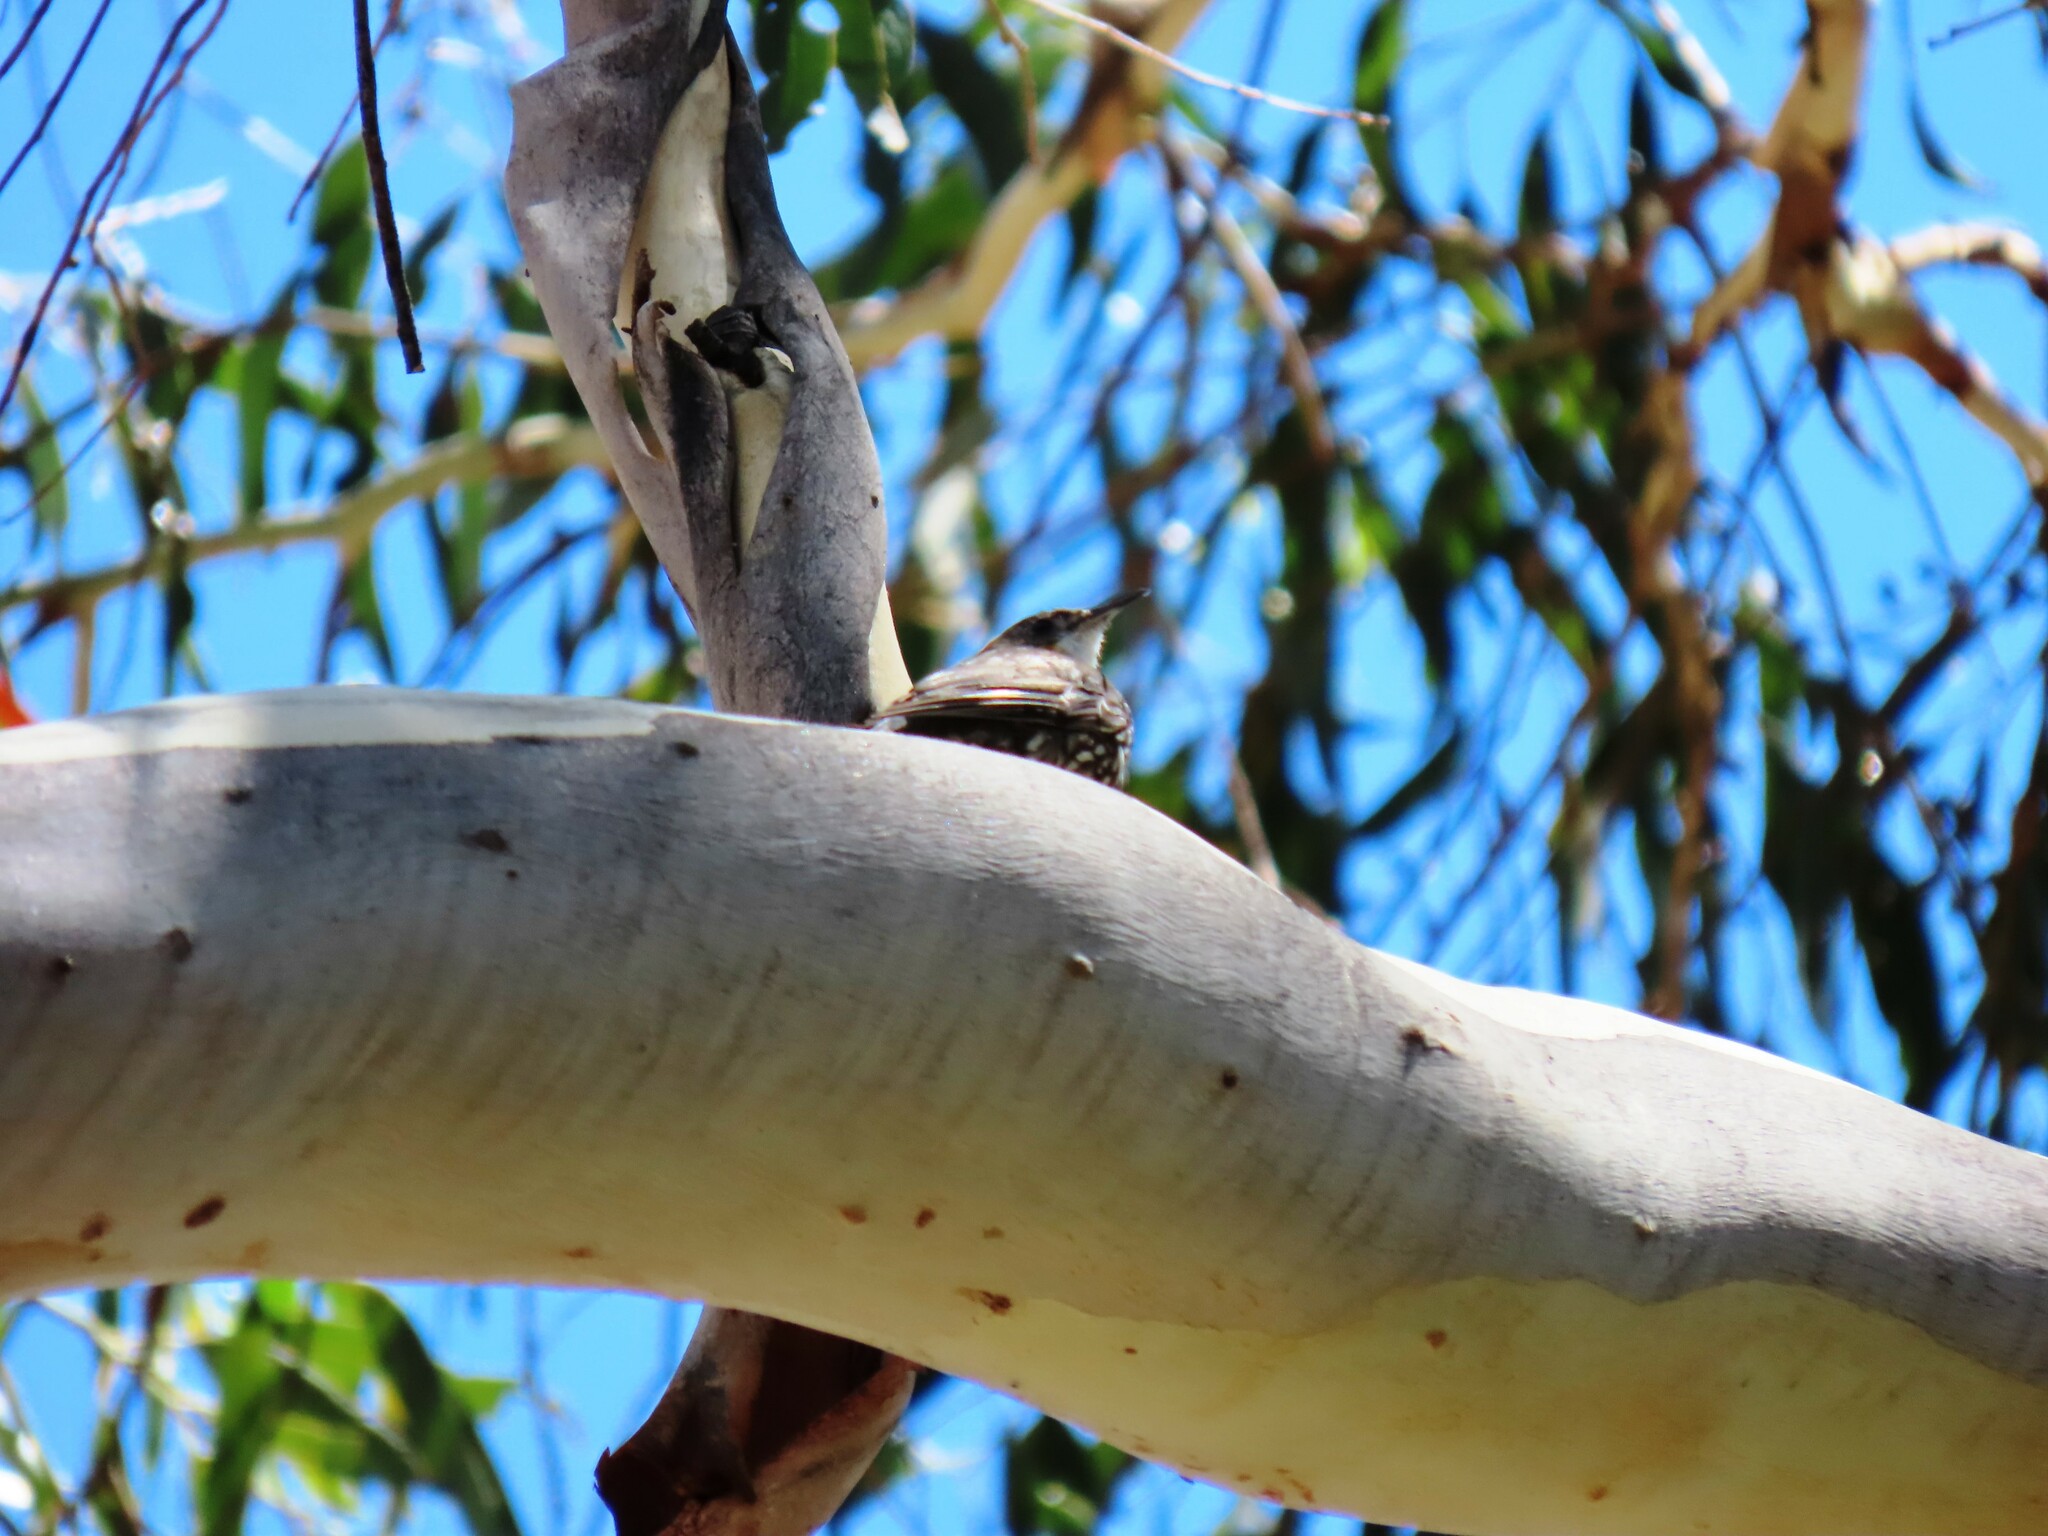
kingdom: Animalia
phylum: Chordata
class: Aves
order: Passeriformes
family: Climacteridae
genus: Cormobates
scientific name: Cormobates leucophaea
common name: White-throated treecreeper
